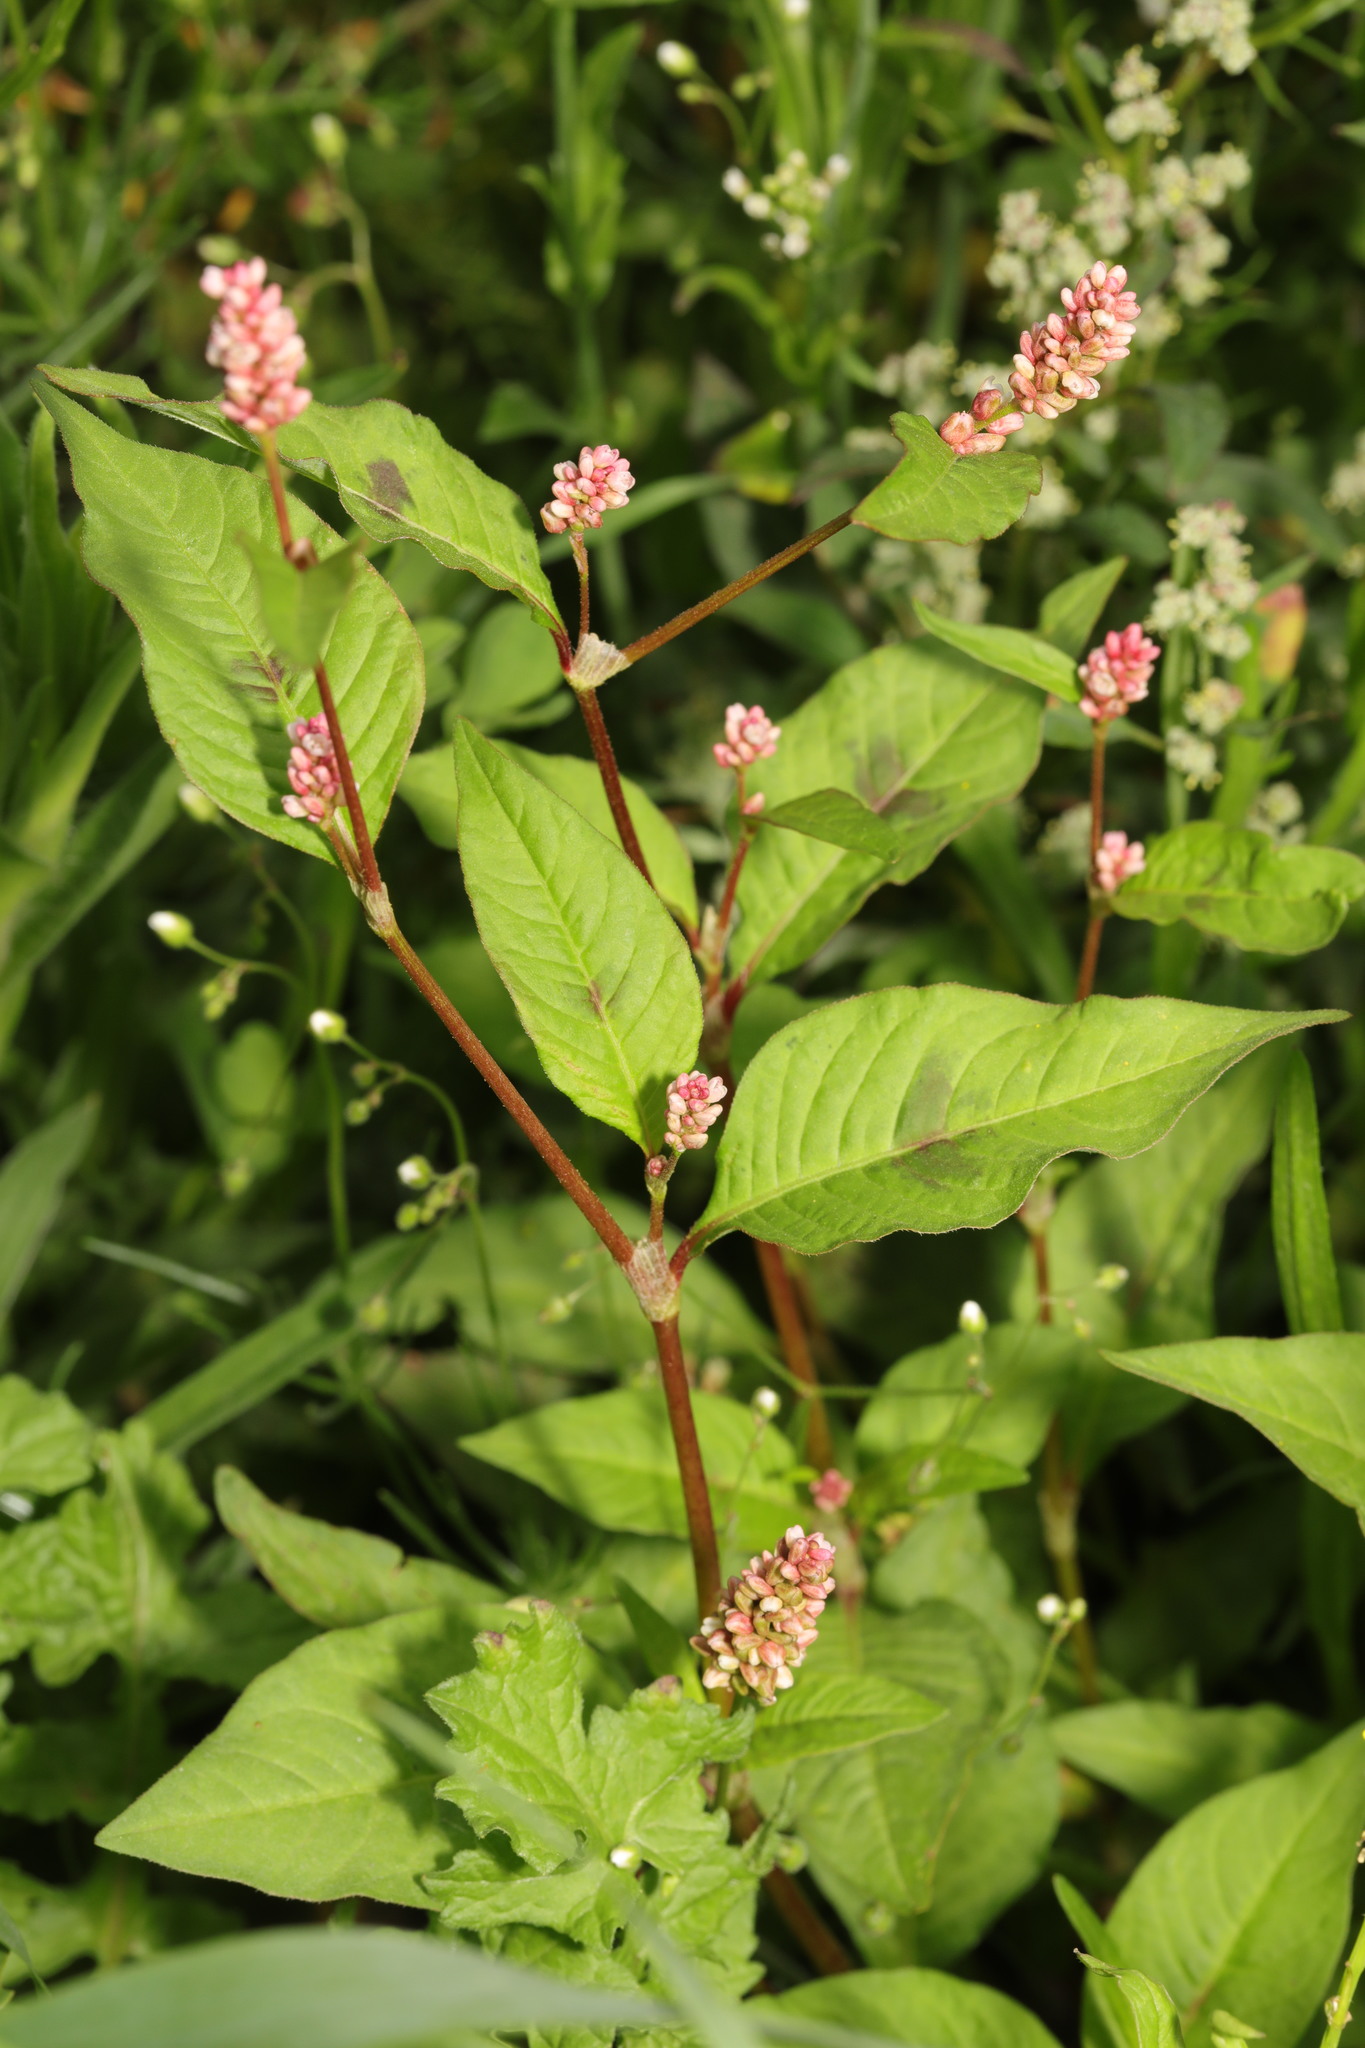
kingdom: Plantae
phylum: Tracheophyta
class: Magnoliopsida
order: Caryophyllales
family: Polygonaceae
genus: Persicaria
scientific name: Persicaria maculosa
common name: Redshank
